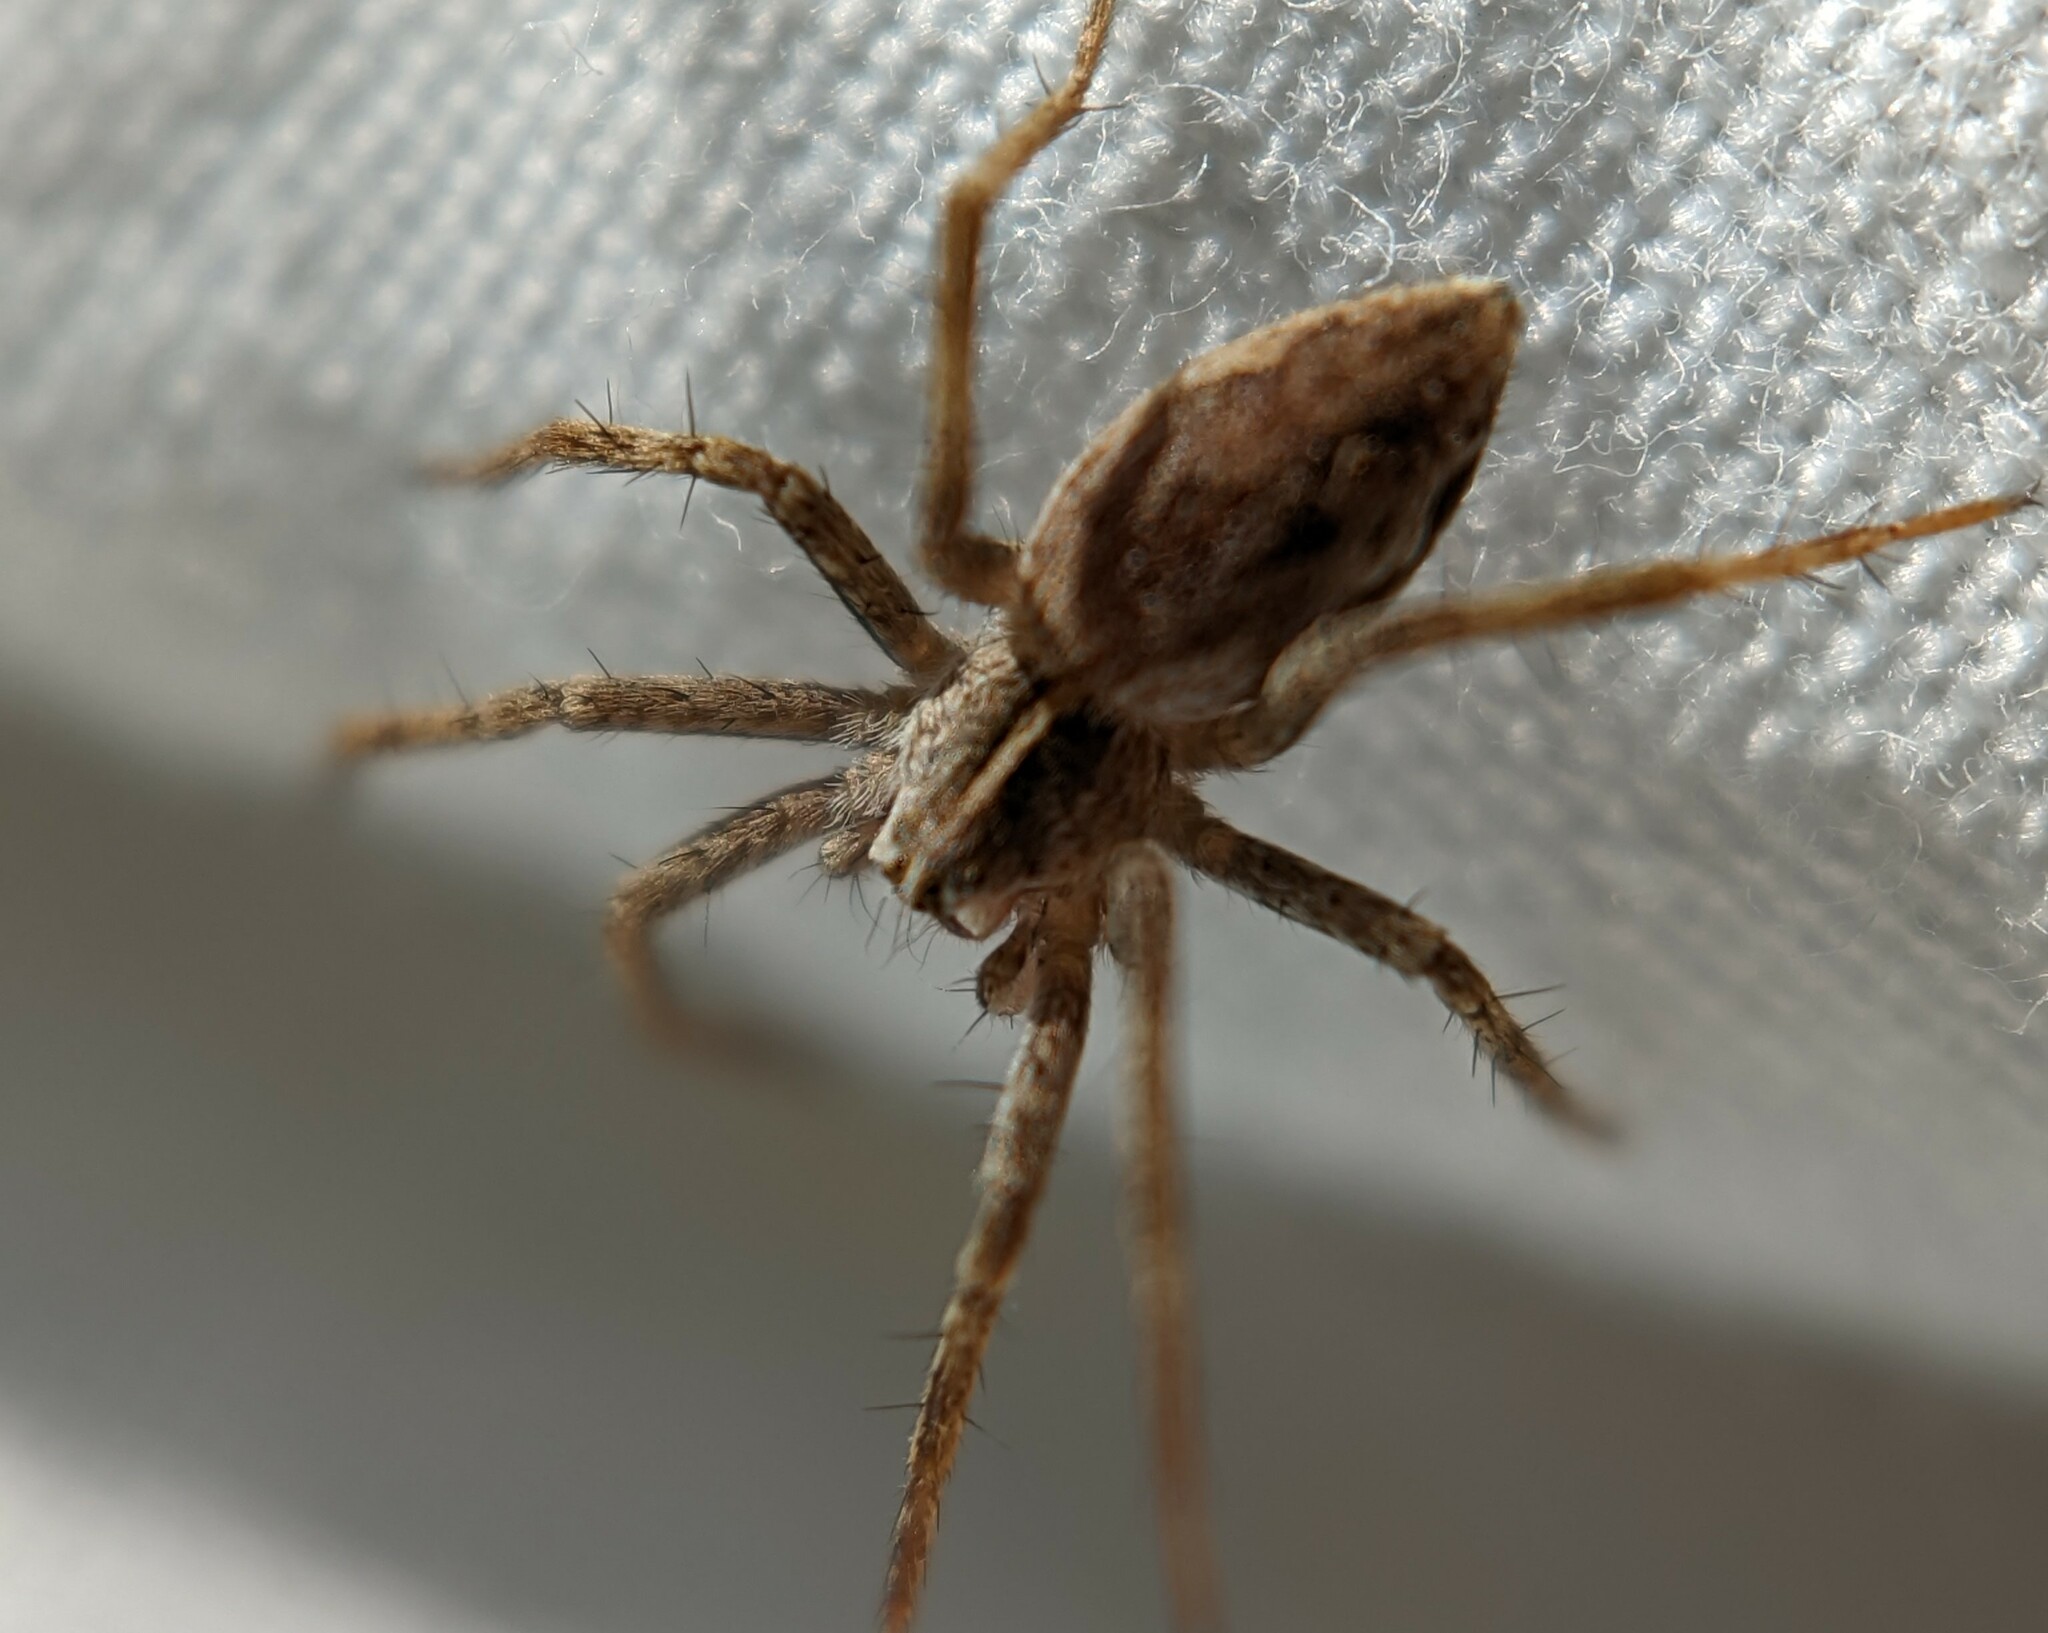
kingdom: Animalia
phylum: Arthropoda
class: Arachnida
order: Araneae
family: Pisauridae
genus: Pisaura
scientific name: Pisaura mirabilis
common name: Tent spider
